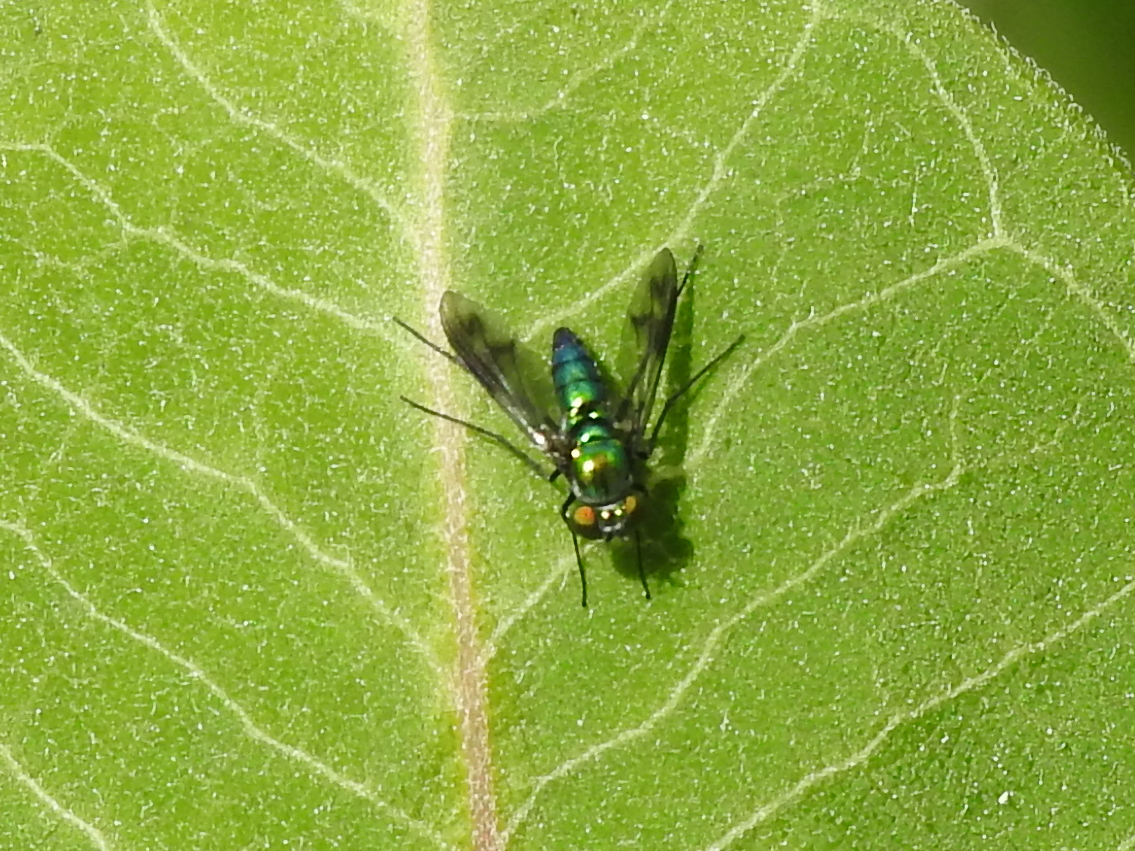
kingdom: Animalia
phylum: Arthropoda
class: Insecta
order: Diptera
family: Dolichopodidae
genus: Condylostylus
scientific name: Condylostylus patibulatus
